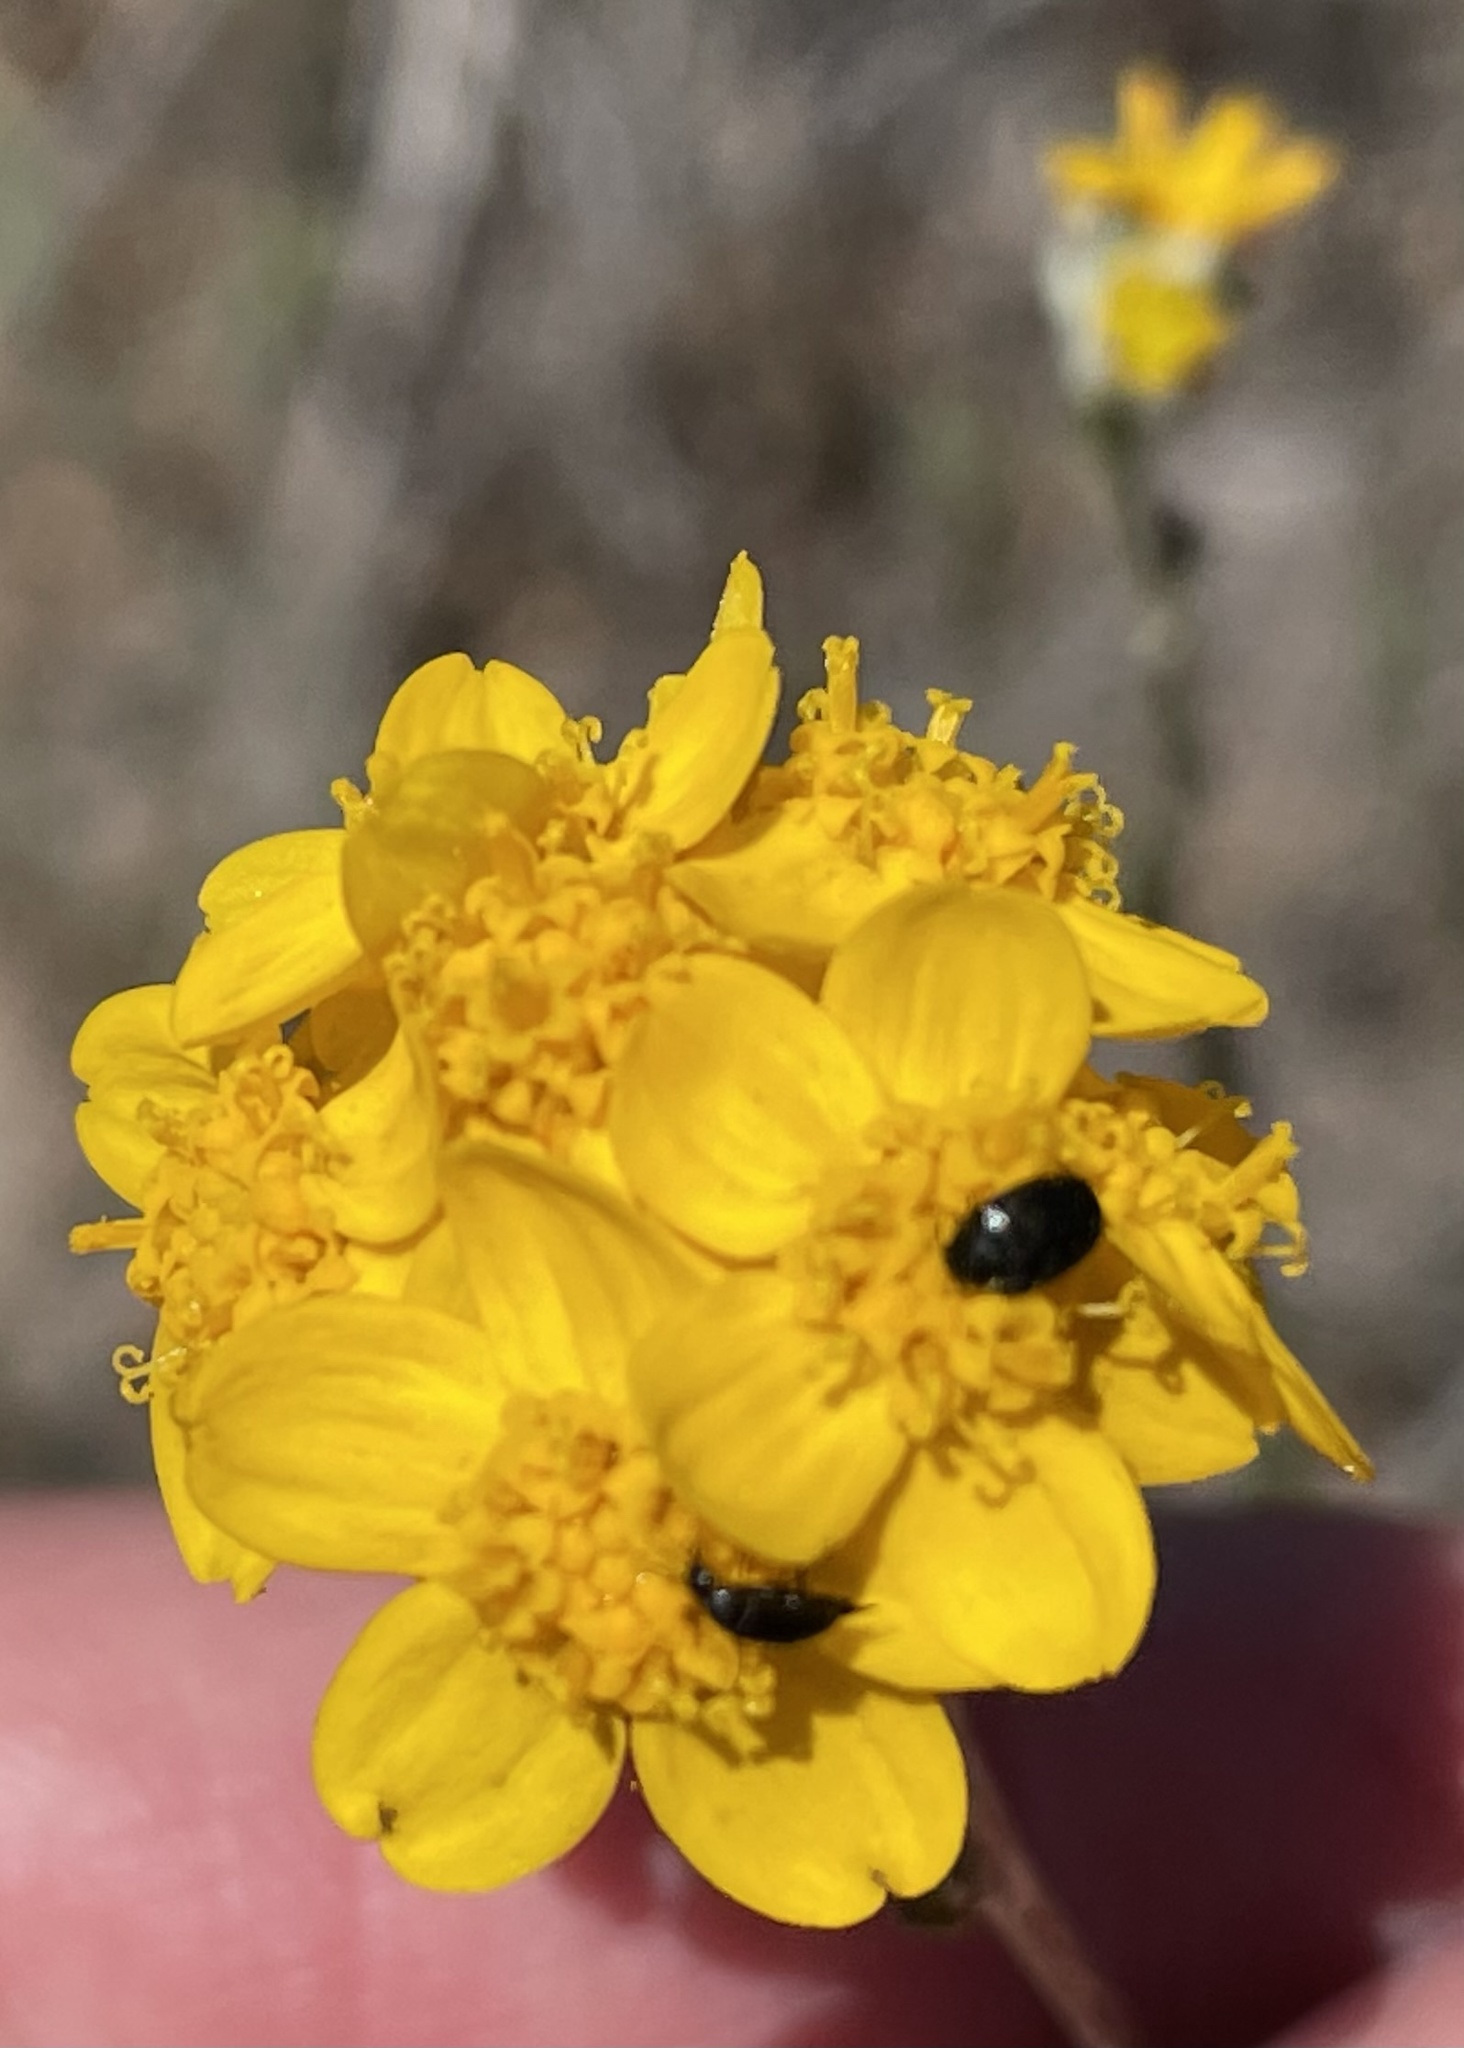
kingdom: Plantae
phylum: Tracheophyta
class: Magnoliopsida
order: Asterales
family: Asteraceae
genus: Eriophyllum
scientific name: Eriophyllum confertiflorum
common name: Golden-yarrow
